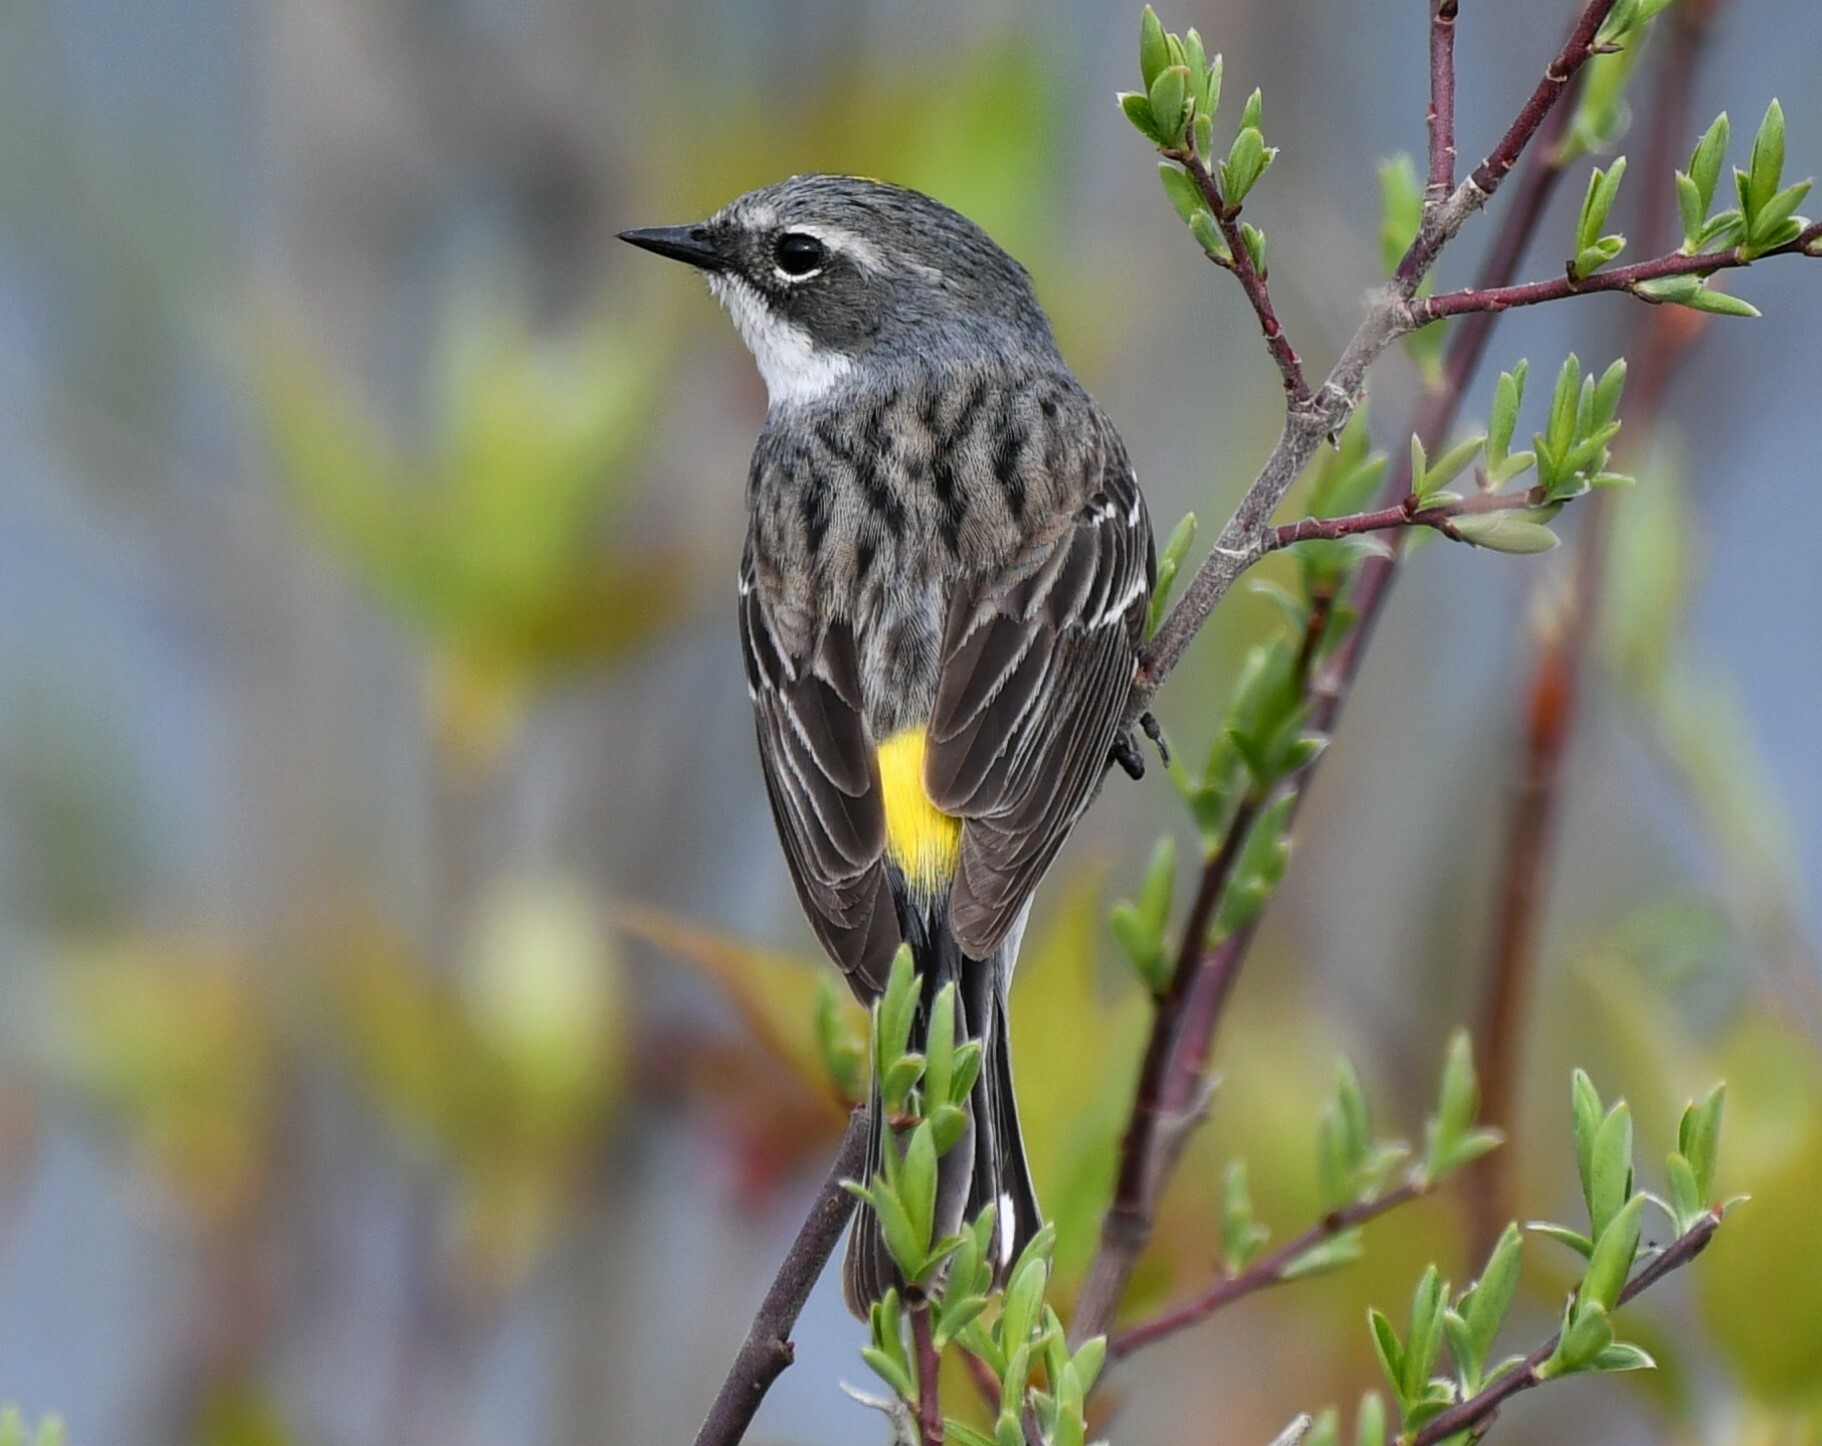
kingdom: Animalia
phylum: Chordata
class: Aves
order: Passeriformes
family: Parulidae
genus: Setophaga
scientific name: Setophaga coronata
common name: Myrtle warbler
